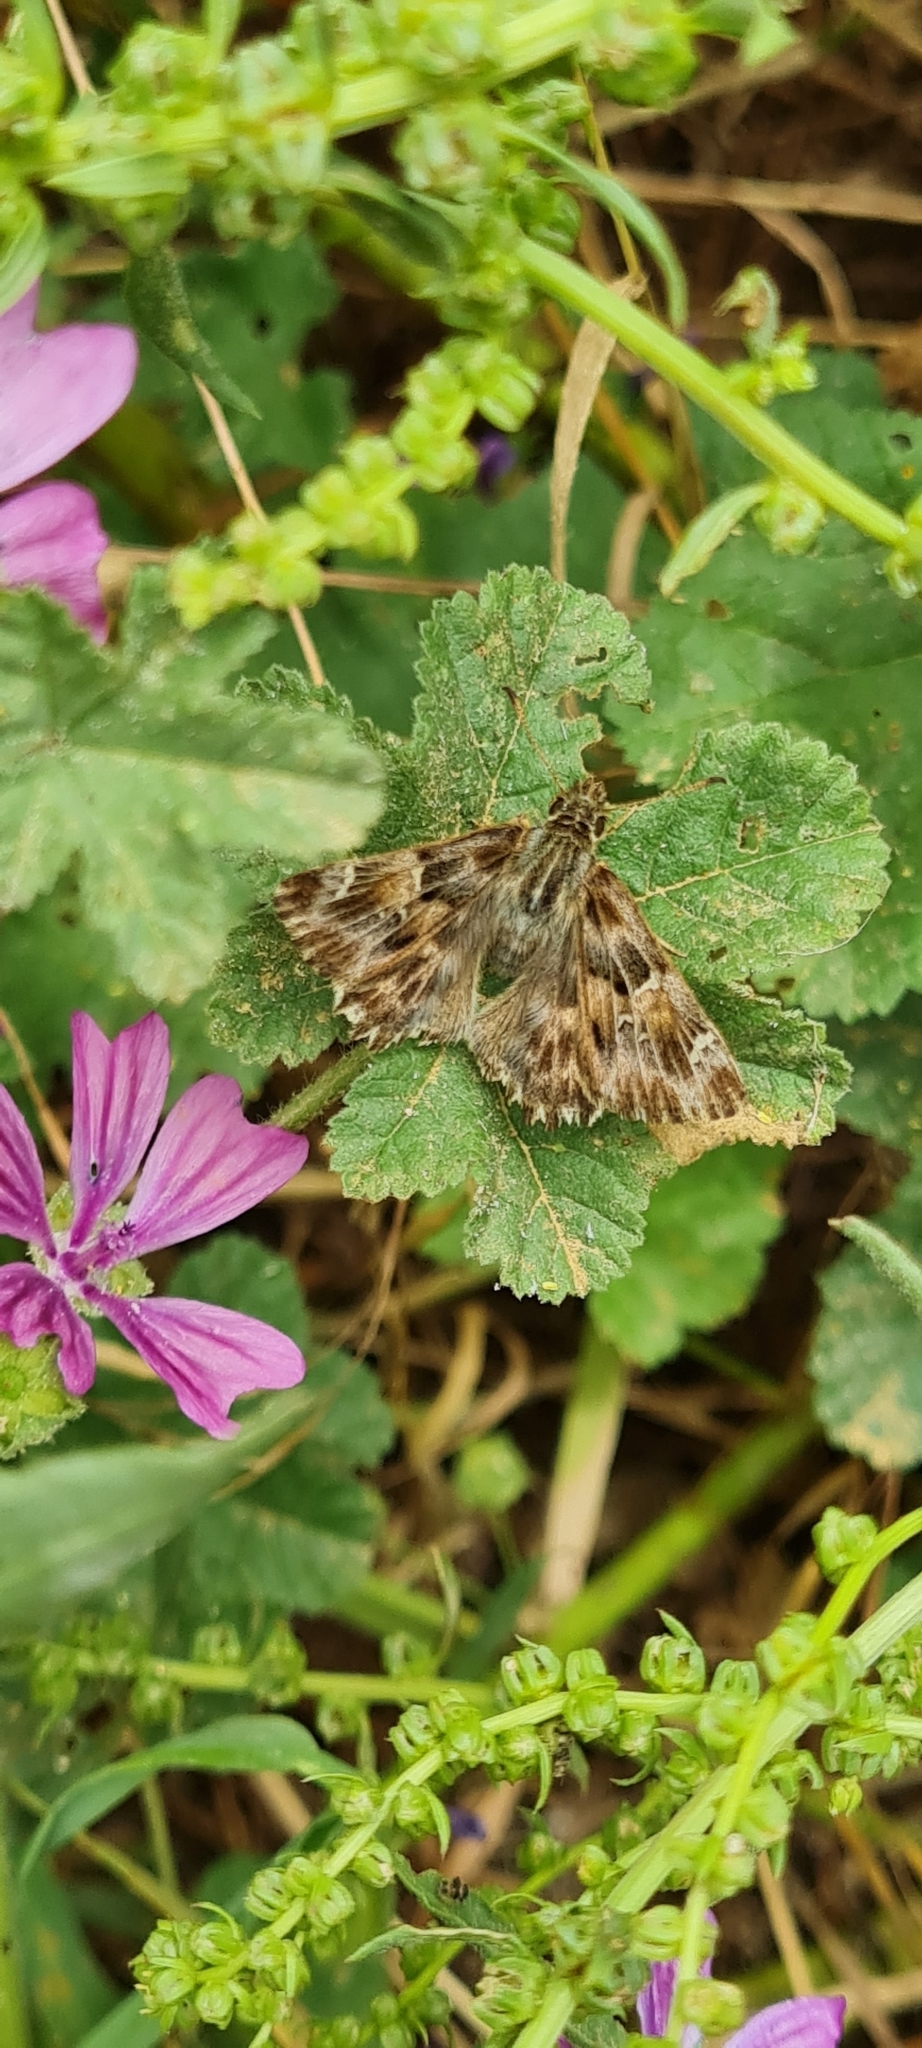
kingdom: Animalia
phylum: Arthropoda
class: Insecta
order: Lepidoptera
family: Hesperiidae
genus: Carcharodus
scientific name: Carcharodus alceae
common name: Mallow skipper
